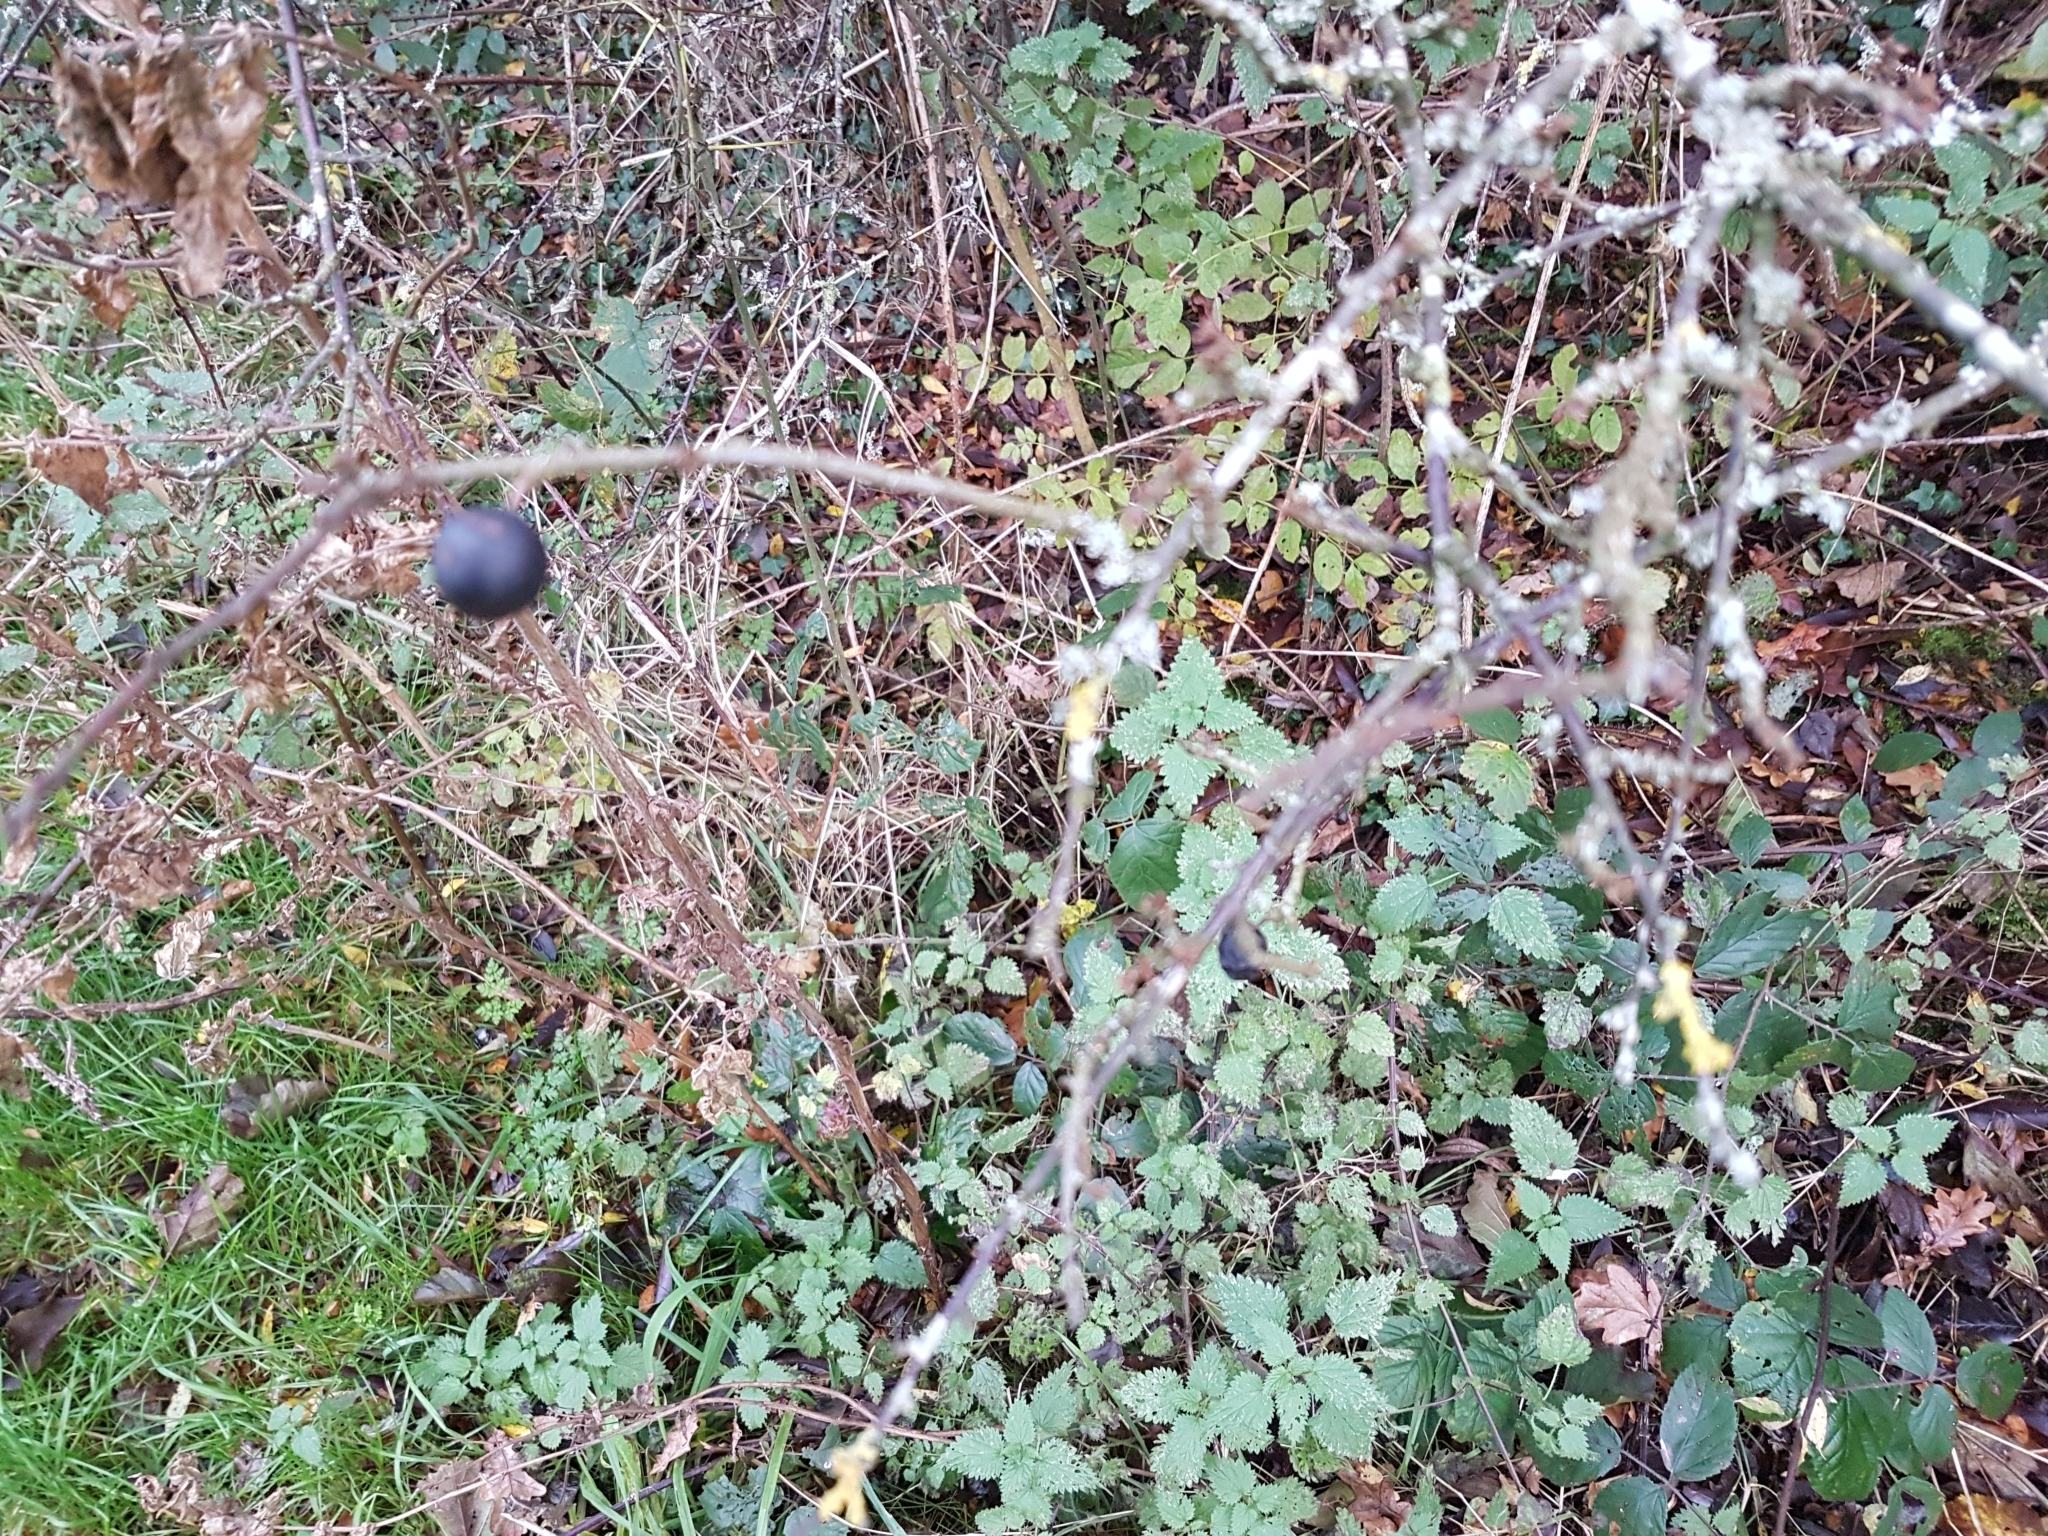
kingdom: Plantae
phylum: Tracheophyta
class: Magnoliopsida
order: Rosales
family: Rosaceae
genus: Prunus
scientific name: Prunus spinosa
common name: Blackthorn
